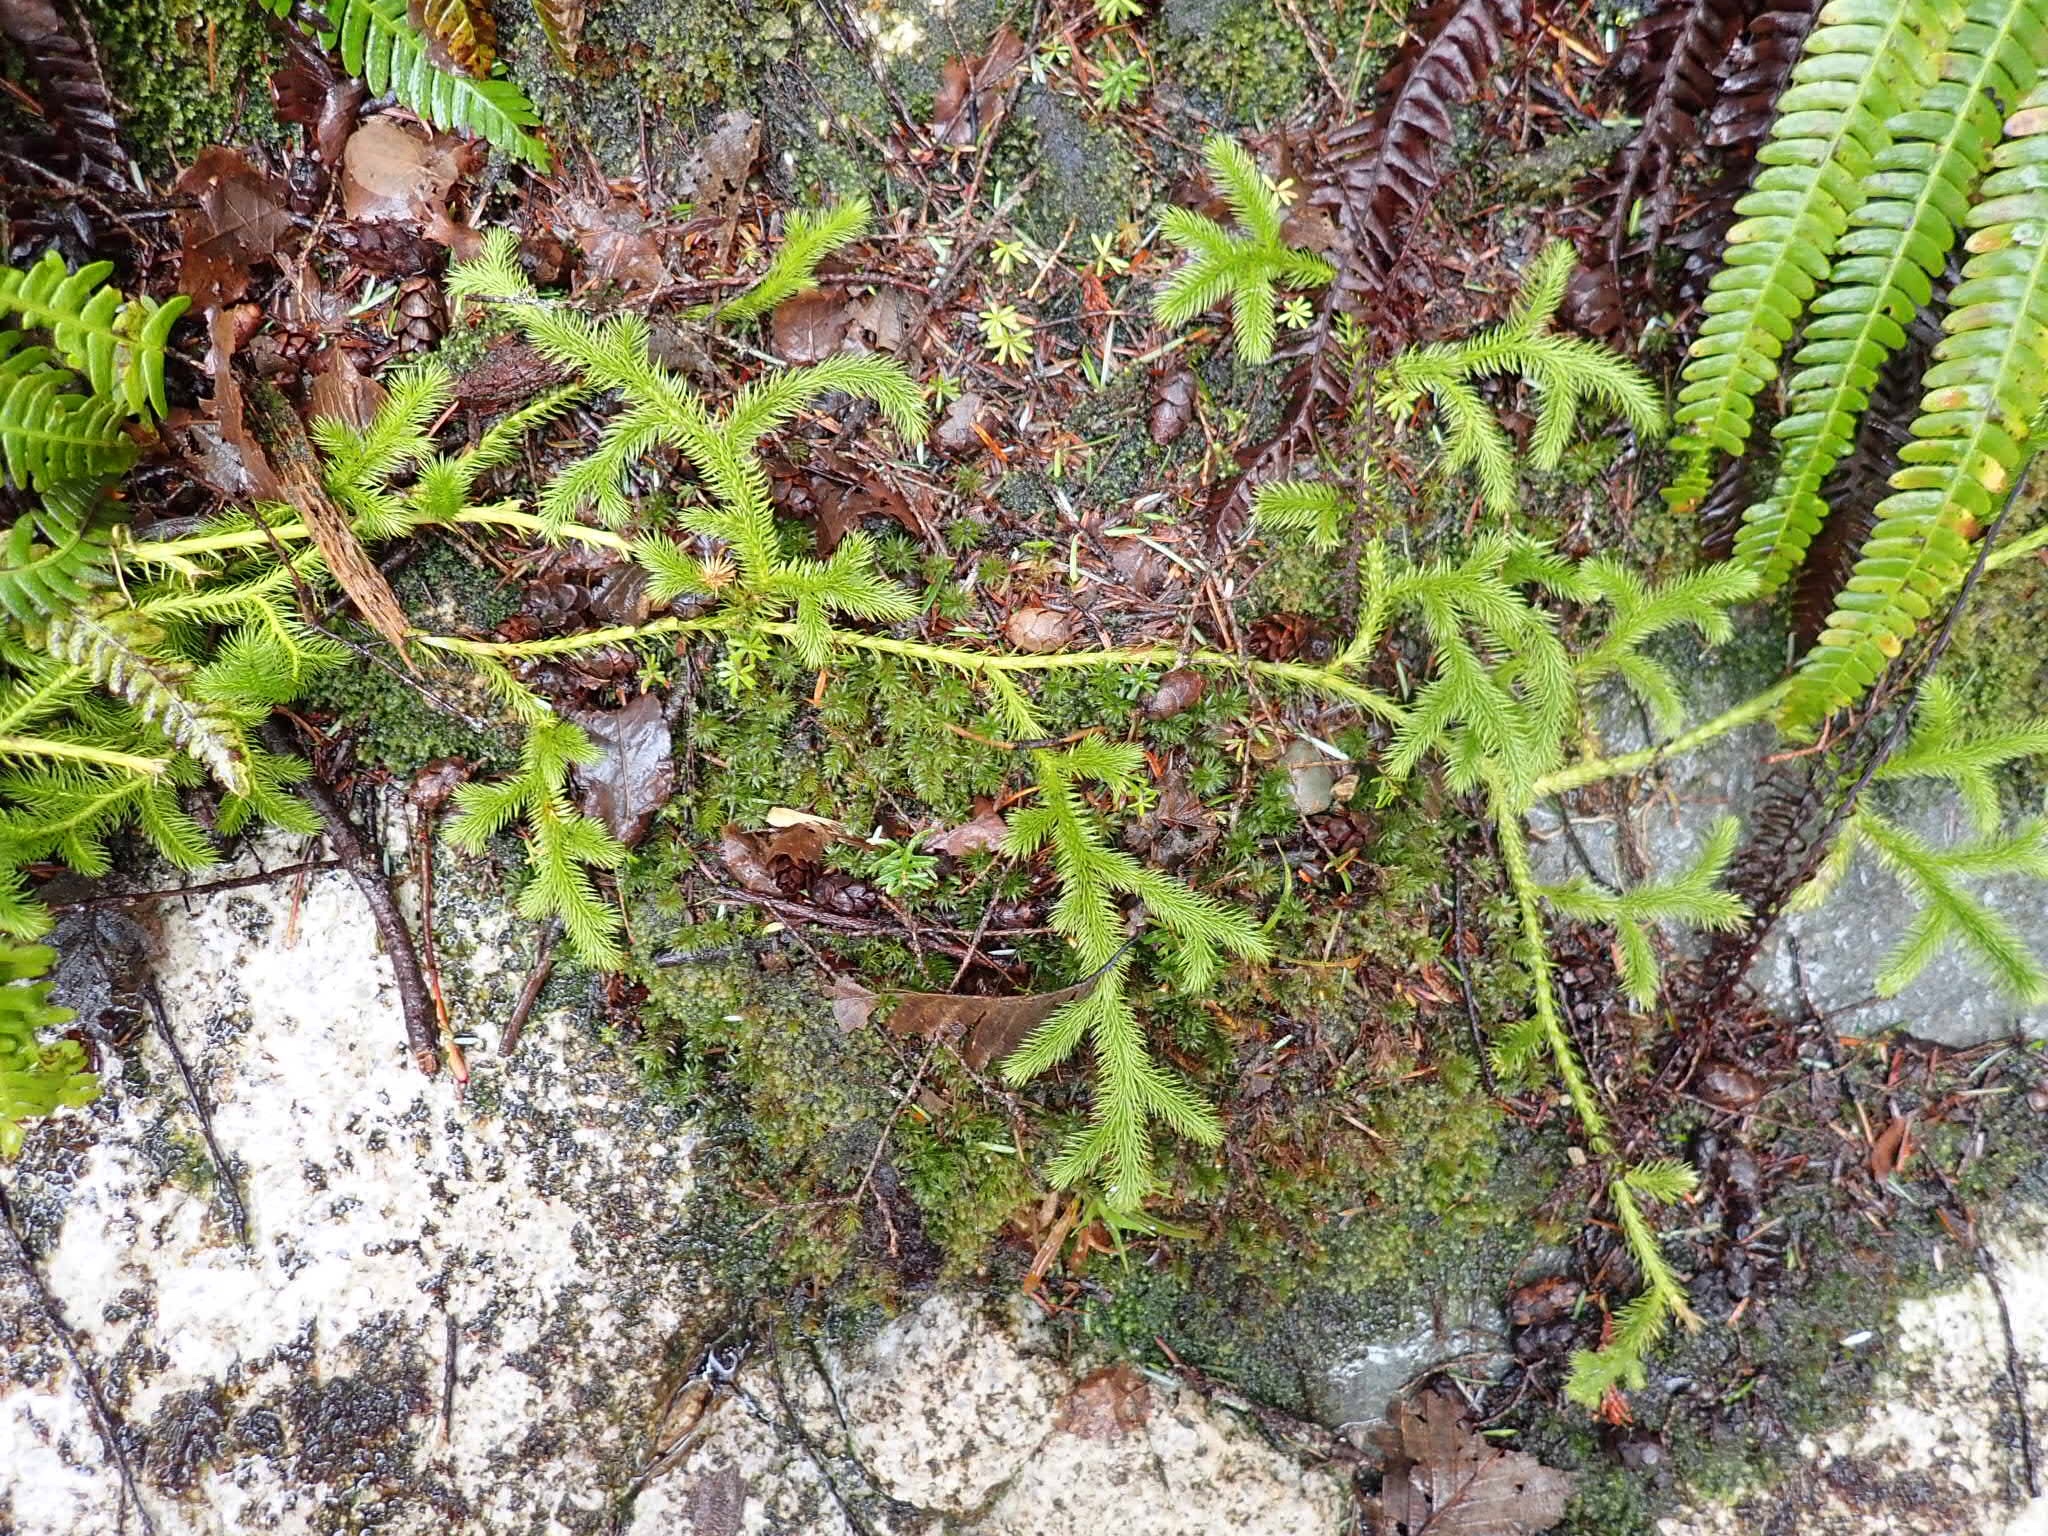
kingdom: Plantae
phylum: Tracheophyta
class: Lycopodiopsida
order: Lycopodiales
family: Lycopodiaceae
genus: Lycopodium
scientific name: Lycopodium clavatum
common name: Stag's-horn clubmoss
